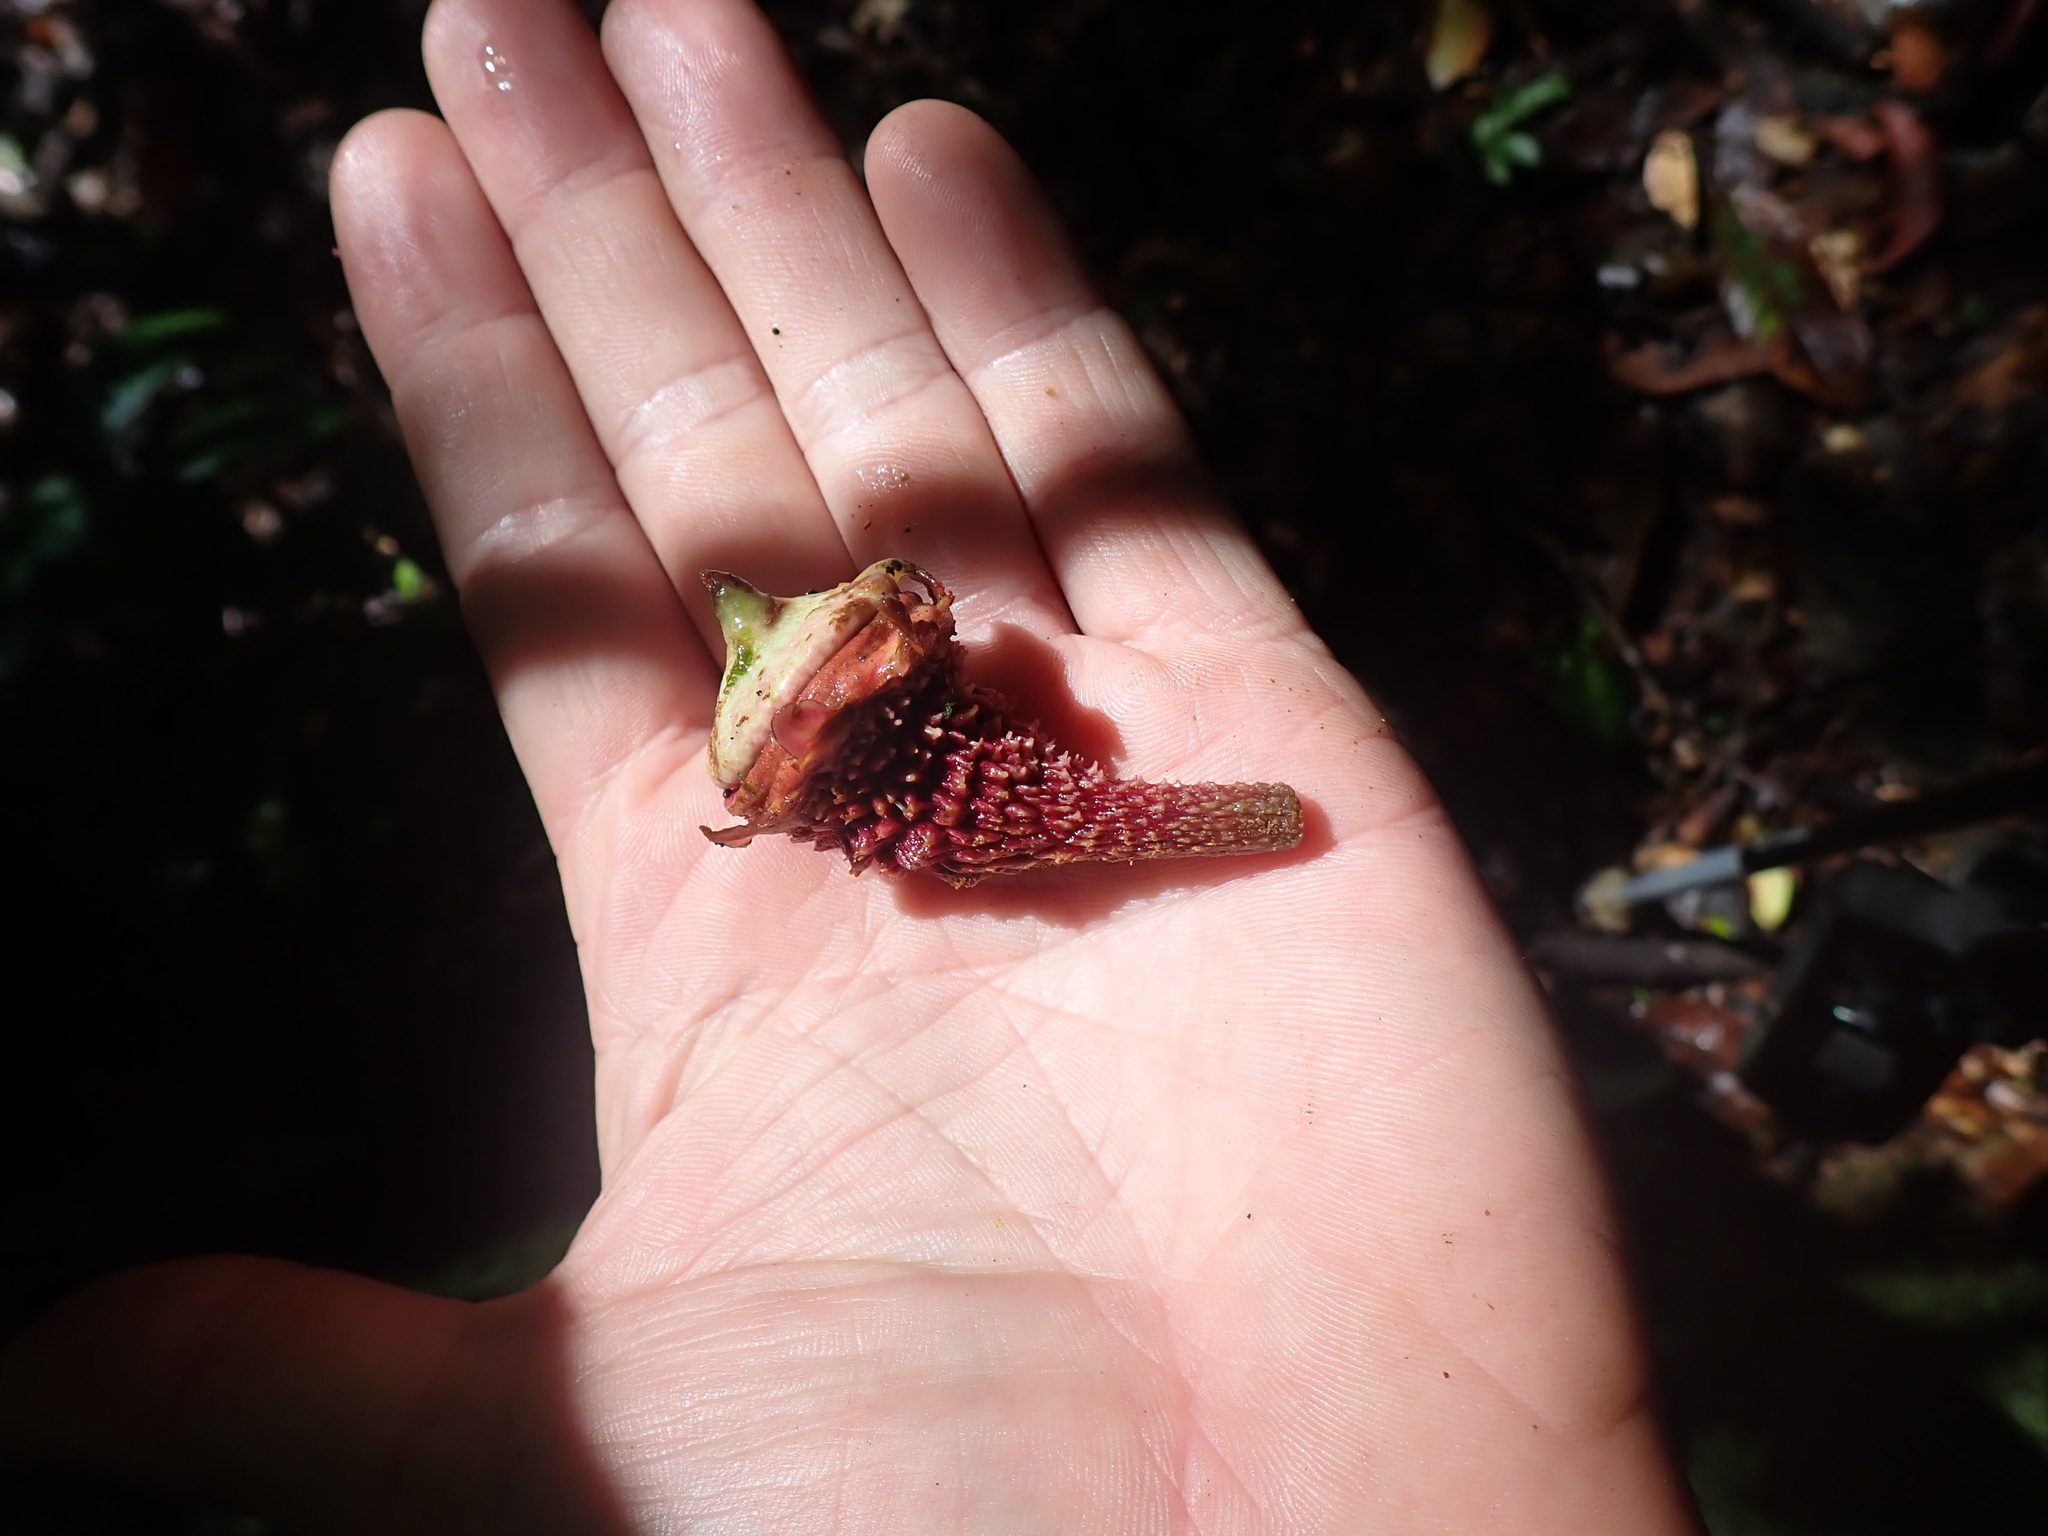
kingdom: Plantae
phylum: Tracheophyta
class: Magnoliopsida
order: Ericales
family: Lecythidaceae
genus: Lecythis
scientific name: Lecythis idatimon
